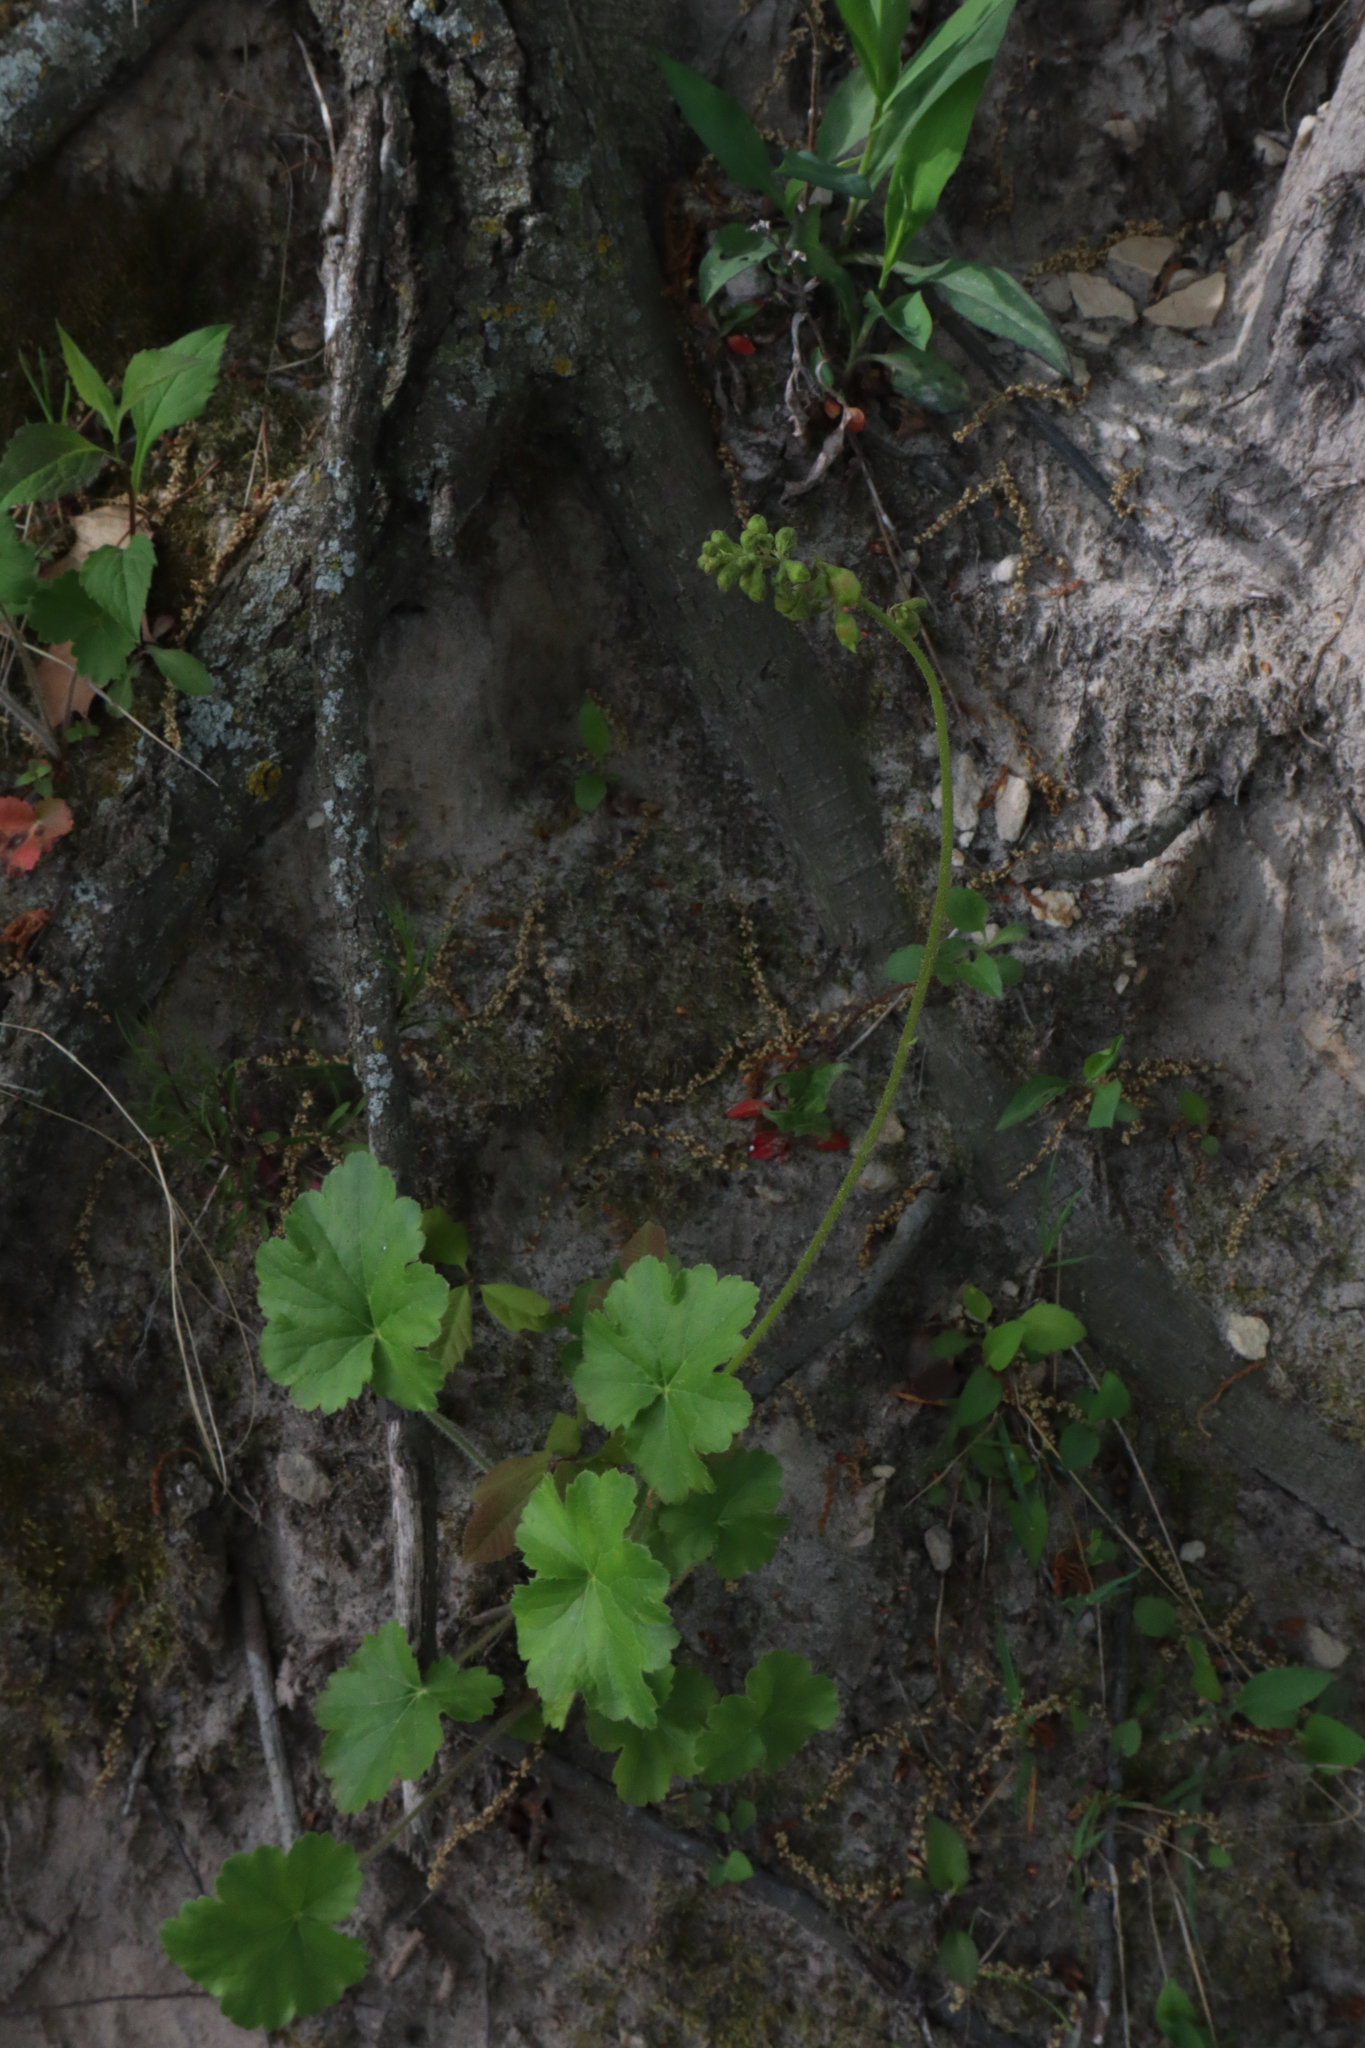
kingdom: Plantae
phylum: Tracheophyta
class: Magnoliopsida
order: Saxifragales
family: Saxifragaceae
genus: Heuchera
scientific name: Heuchera richardsonii
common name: Richardson's alumroot
